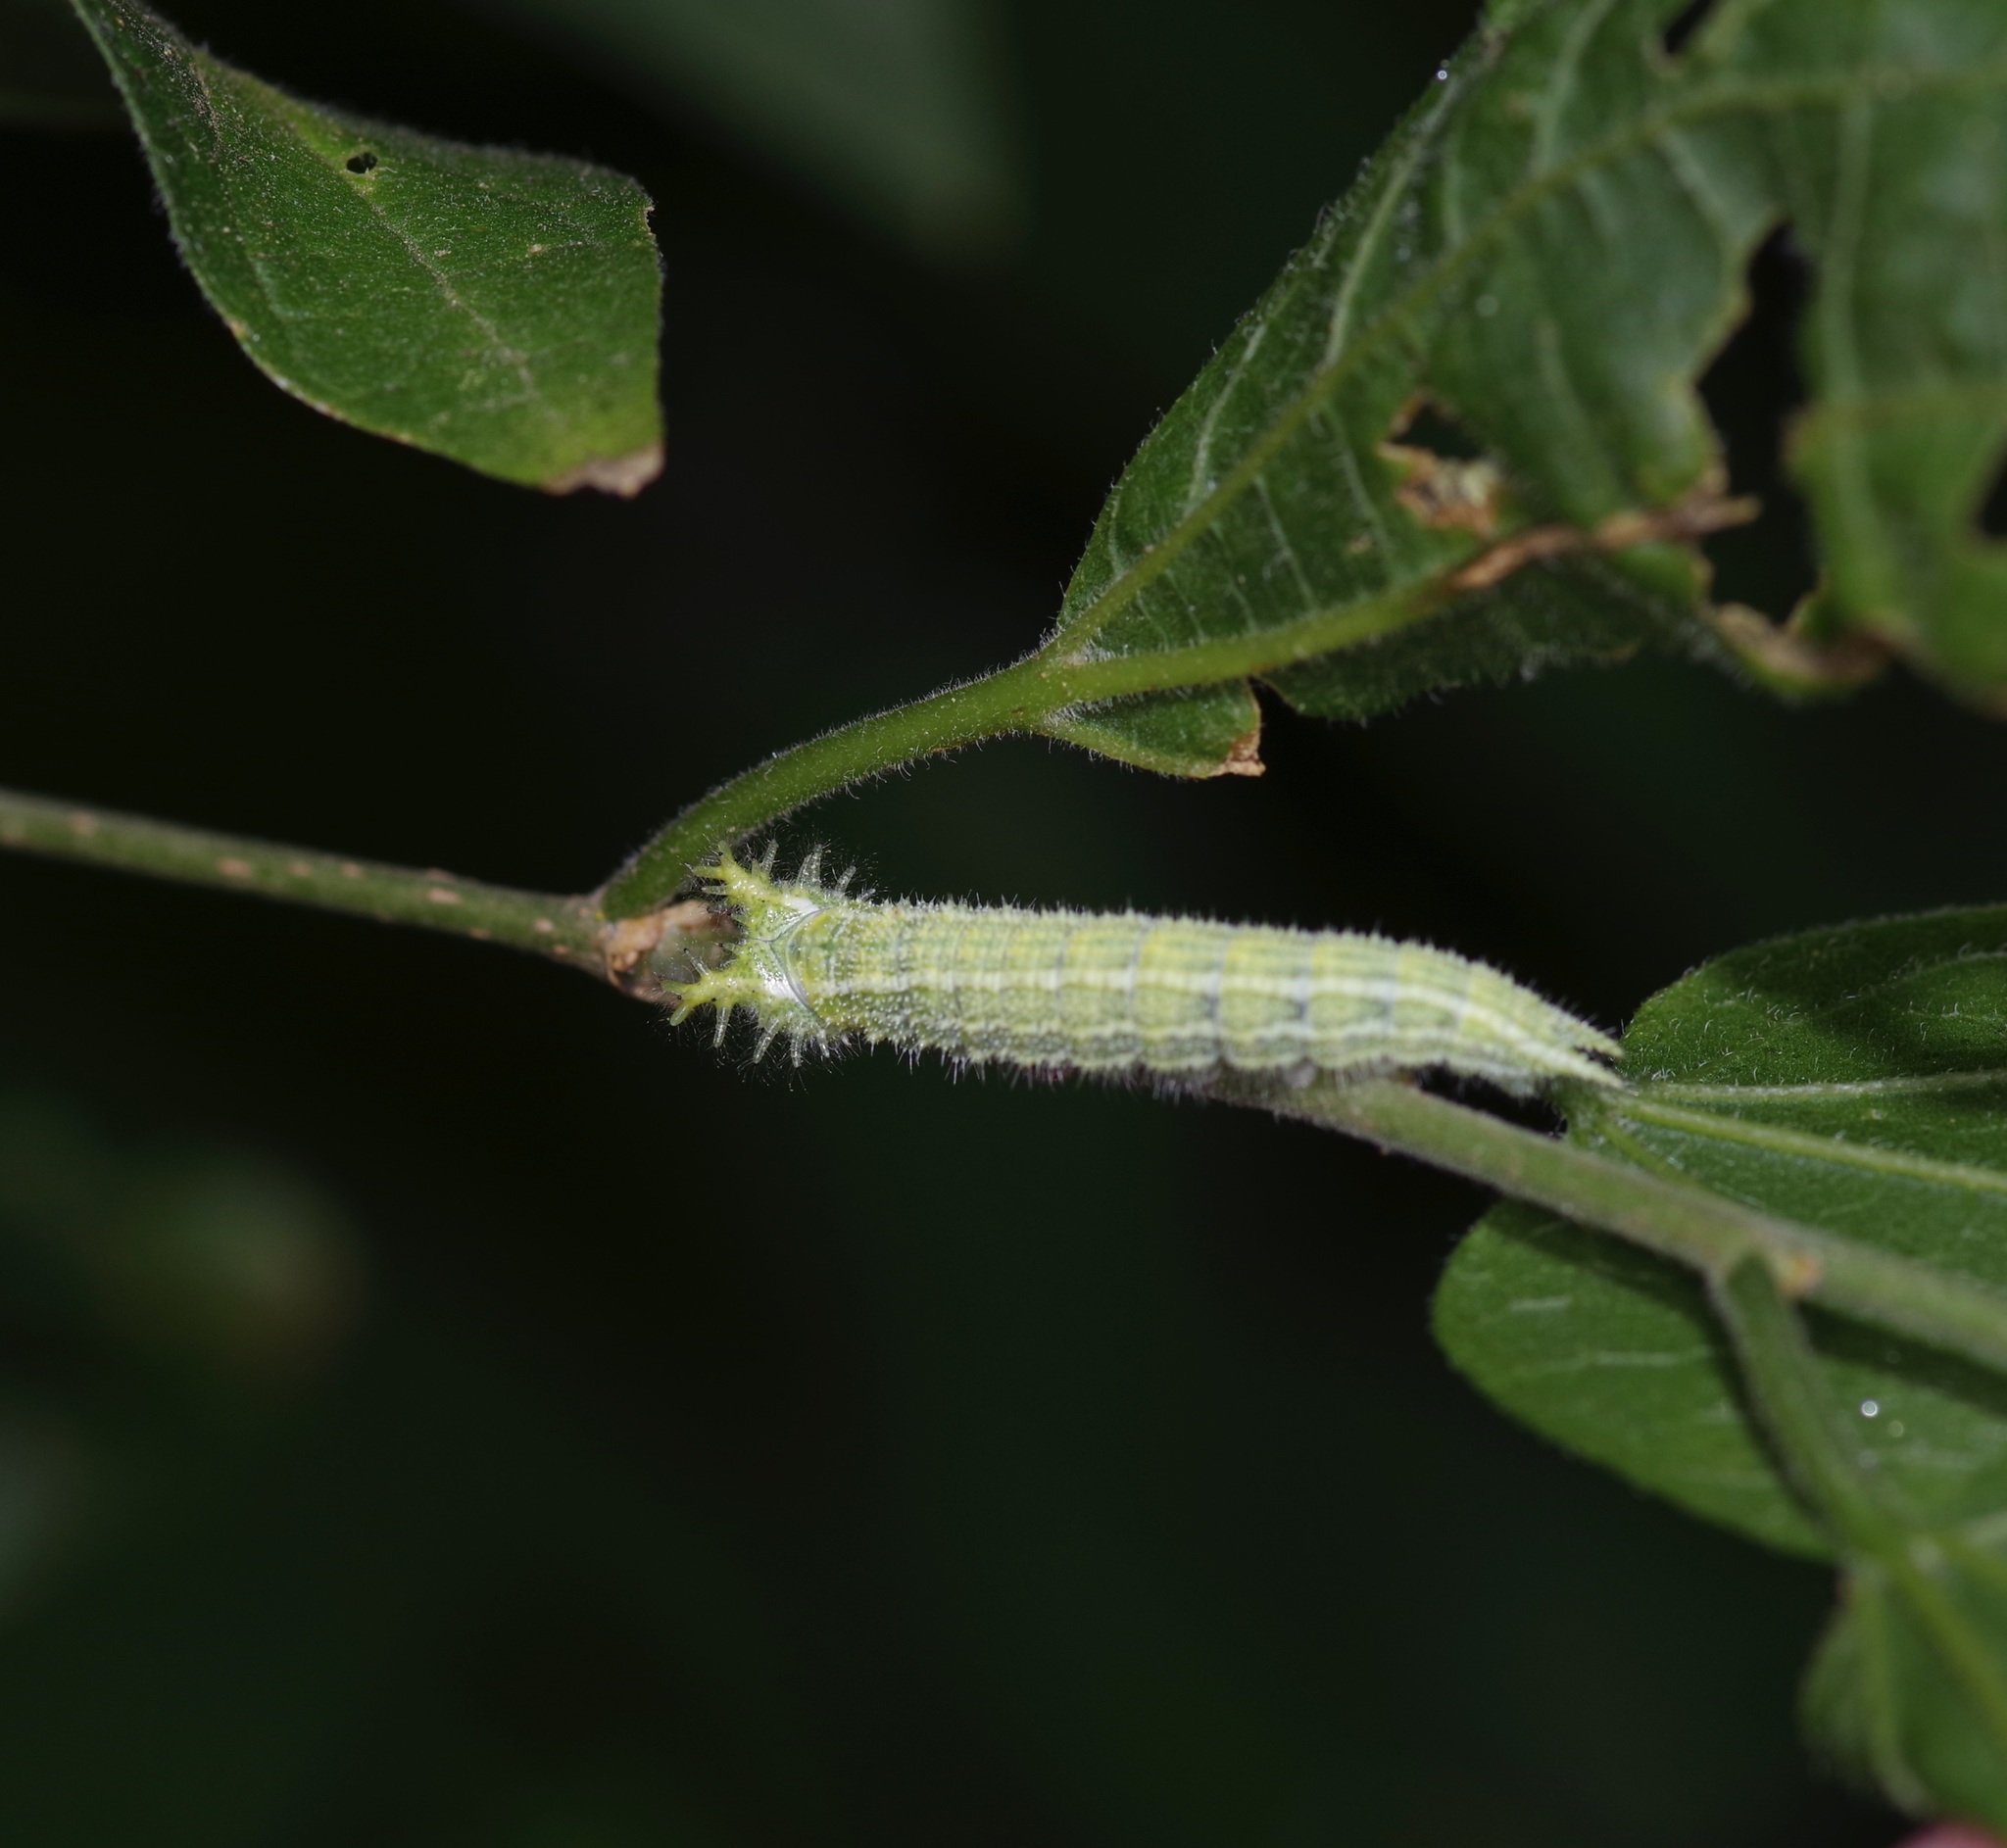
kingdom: Animalia
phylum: Arthropoda
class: Insecta
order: Lepidoptera
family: Nymphalidae
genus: Asterocampa
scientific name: Asterocampa clyton
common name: Tawny emperor
